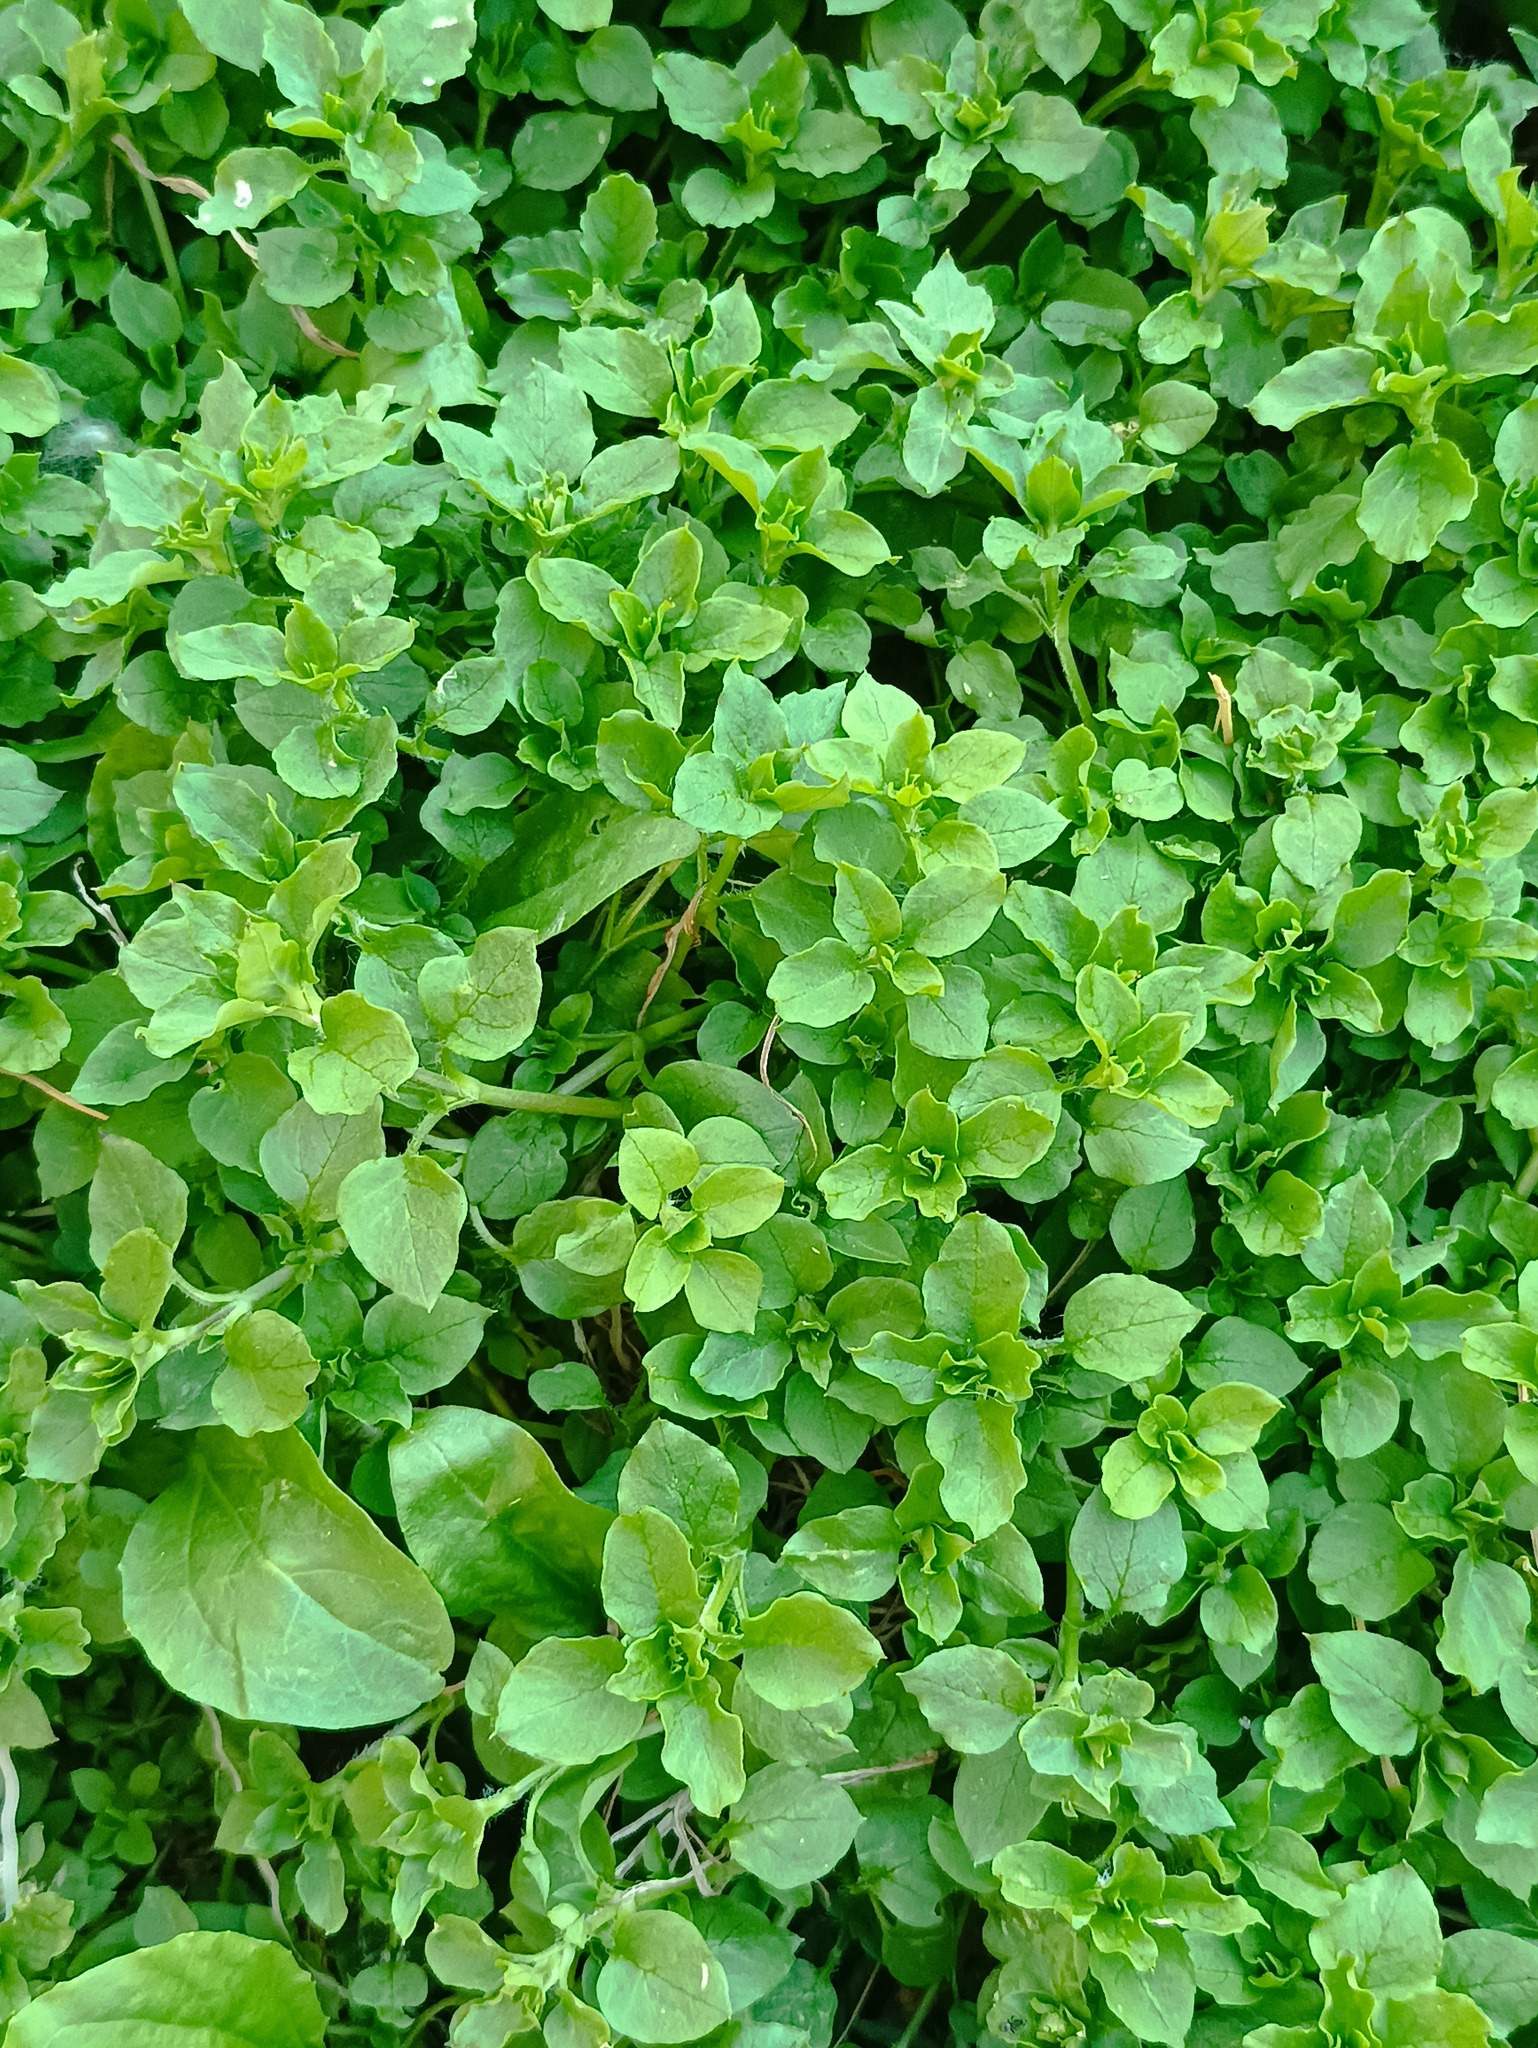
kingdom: Plantae
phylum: Tracheophyta
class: Magnoliopsida
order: Caryophyllales
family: Caryophyllaceae
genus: Stellaria
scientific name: Stellaria media
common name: Common chickweed
